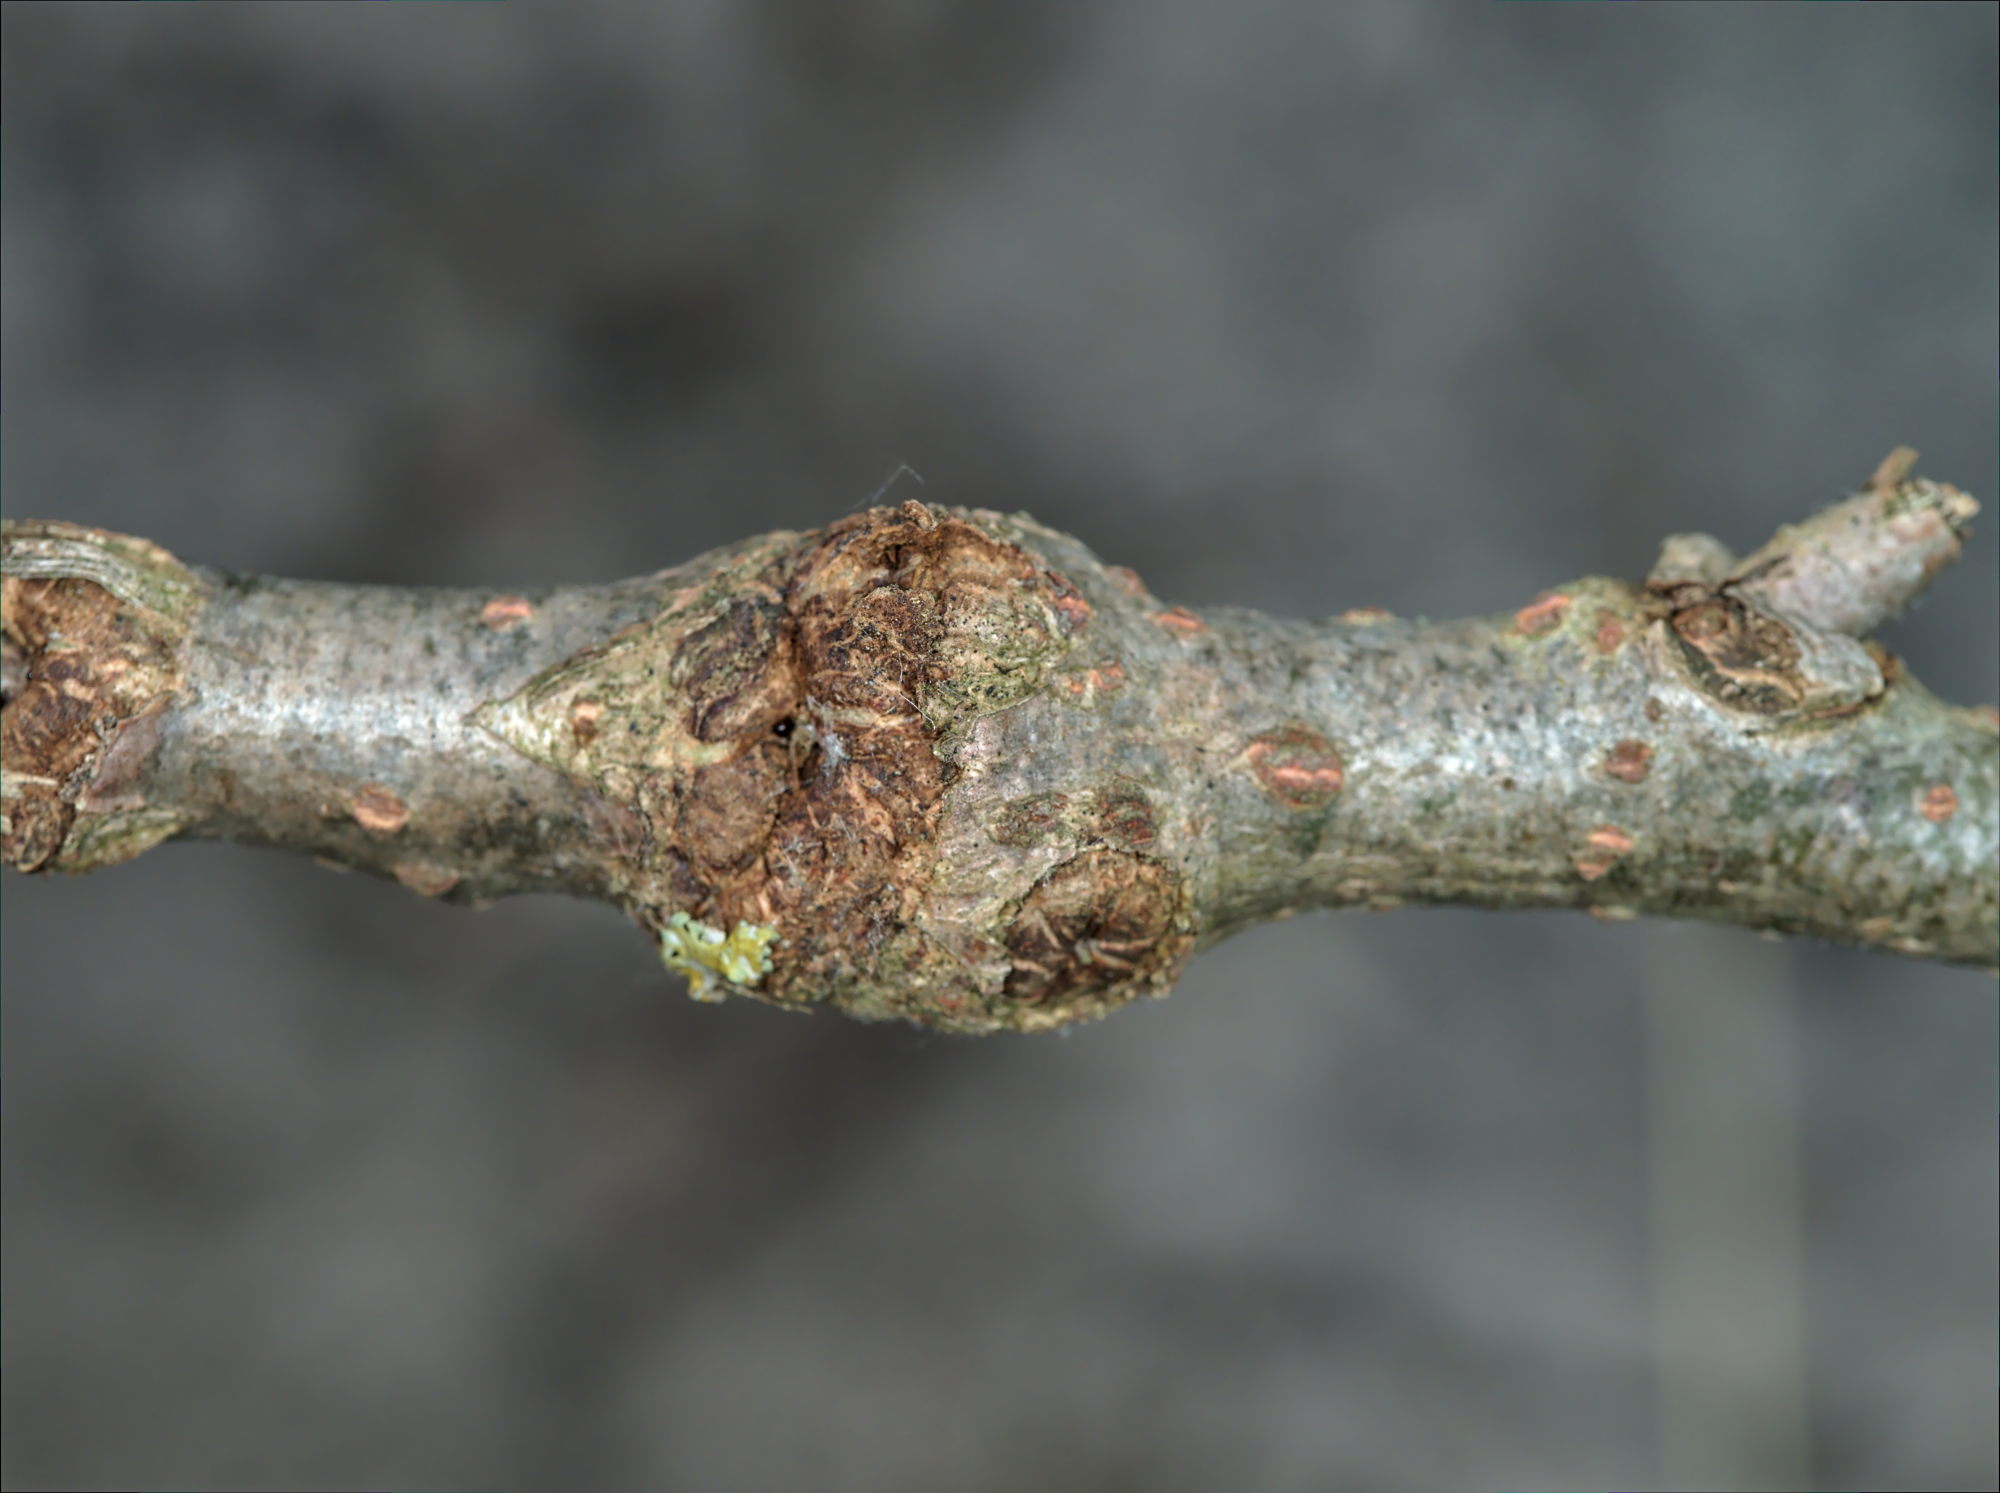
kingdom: Animalia
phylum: Arthropoda
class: Insecta
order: Coleoptera
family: Cerambycidae
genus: Saperda
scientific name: Saperda populnea
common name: Small poplar borer
